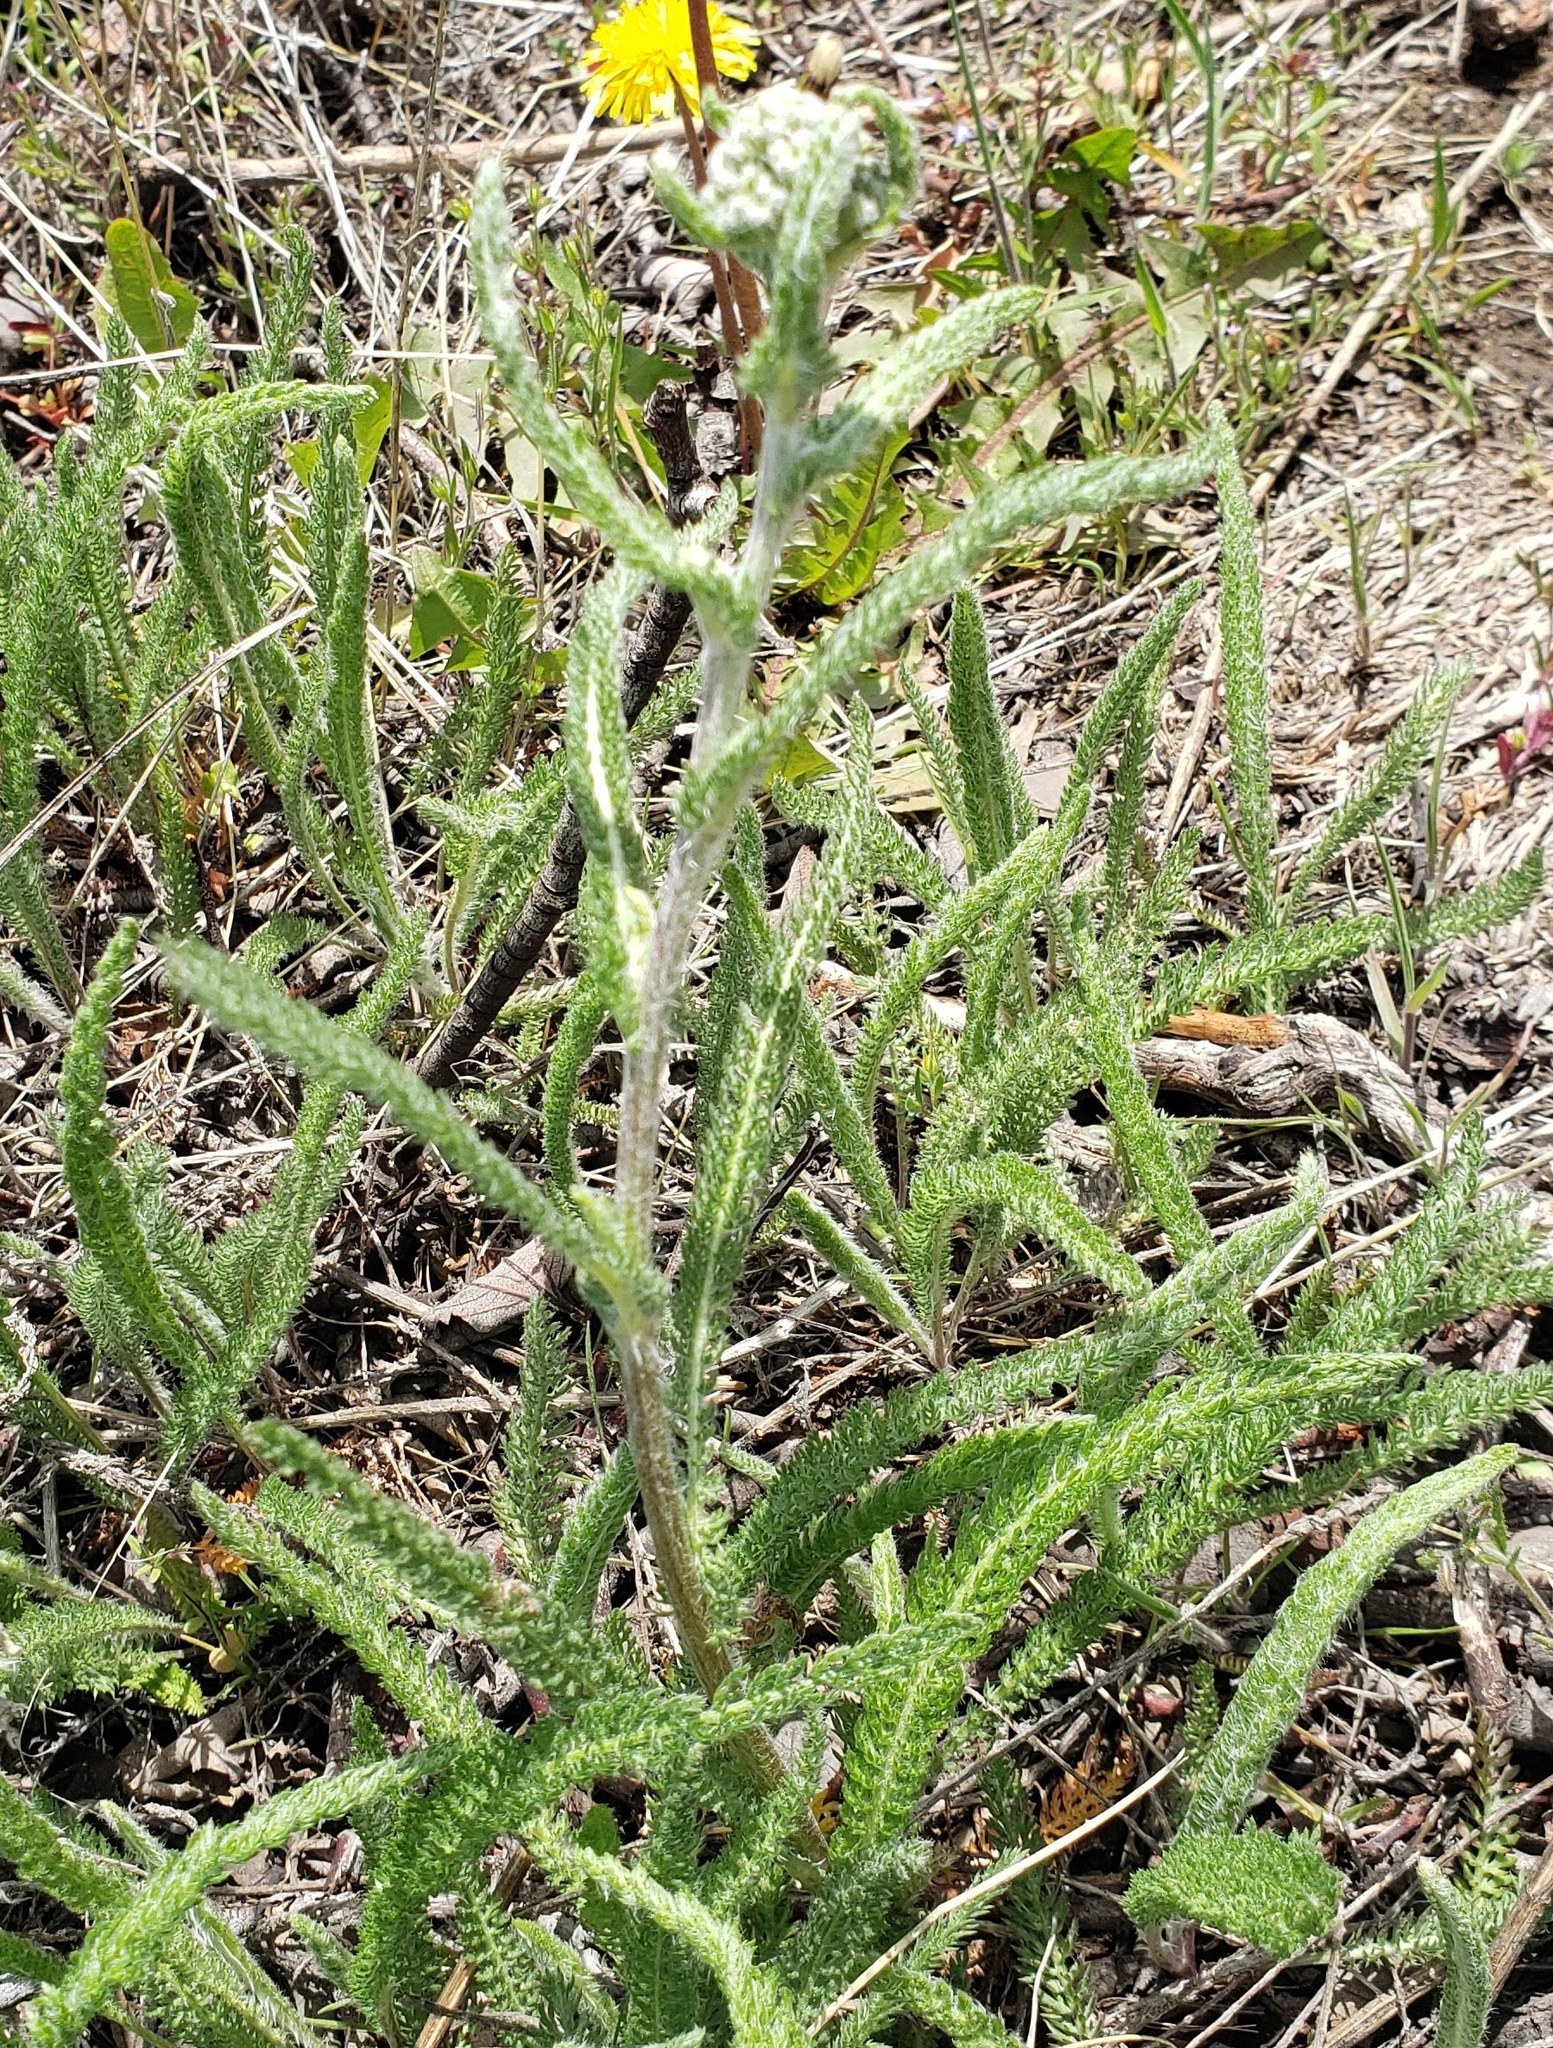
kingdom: Plantae
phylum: Tracheophyta
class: Magnoliopsida
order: Asterales
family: Asteraceae
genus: Achillea
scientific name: Achillea millefolium
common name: Yarrow
